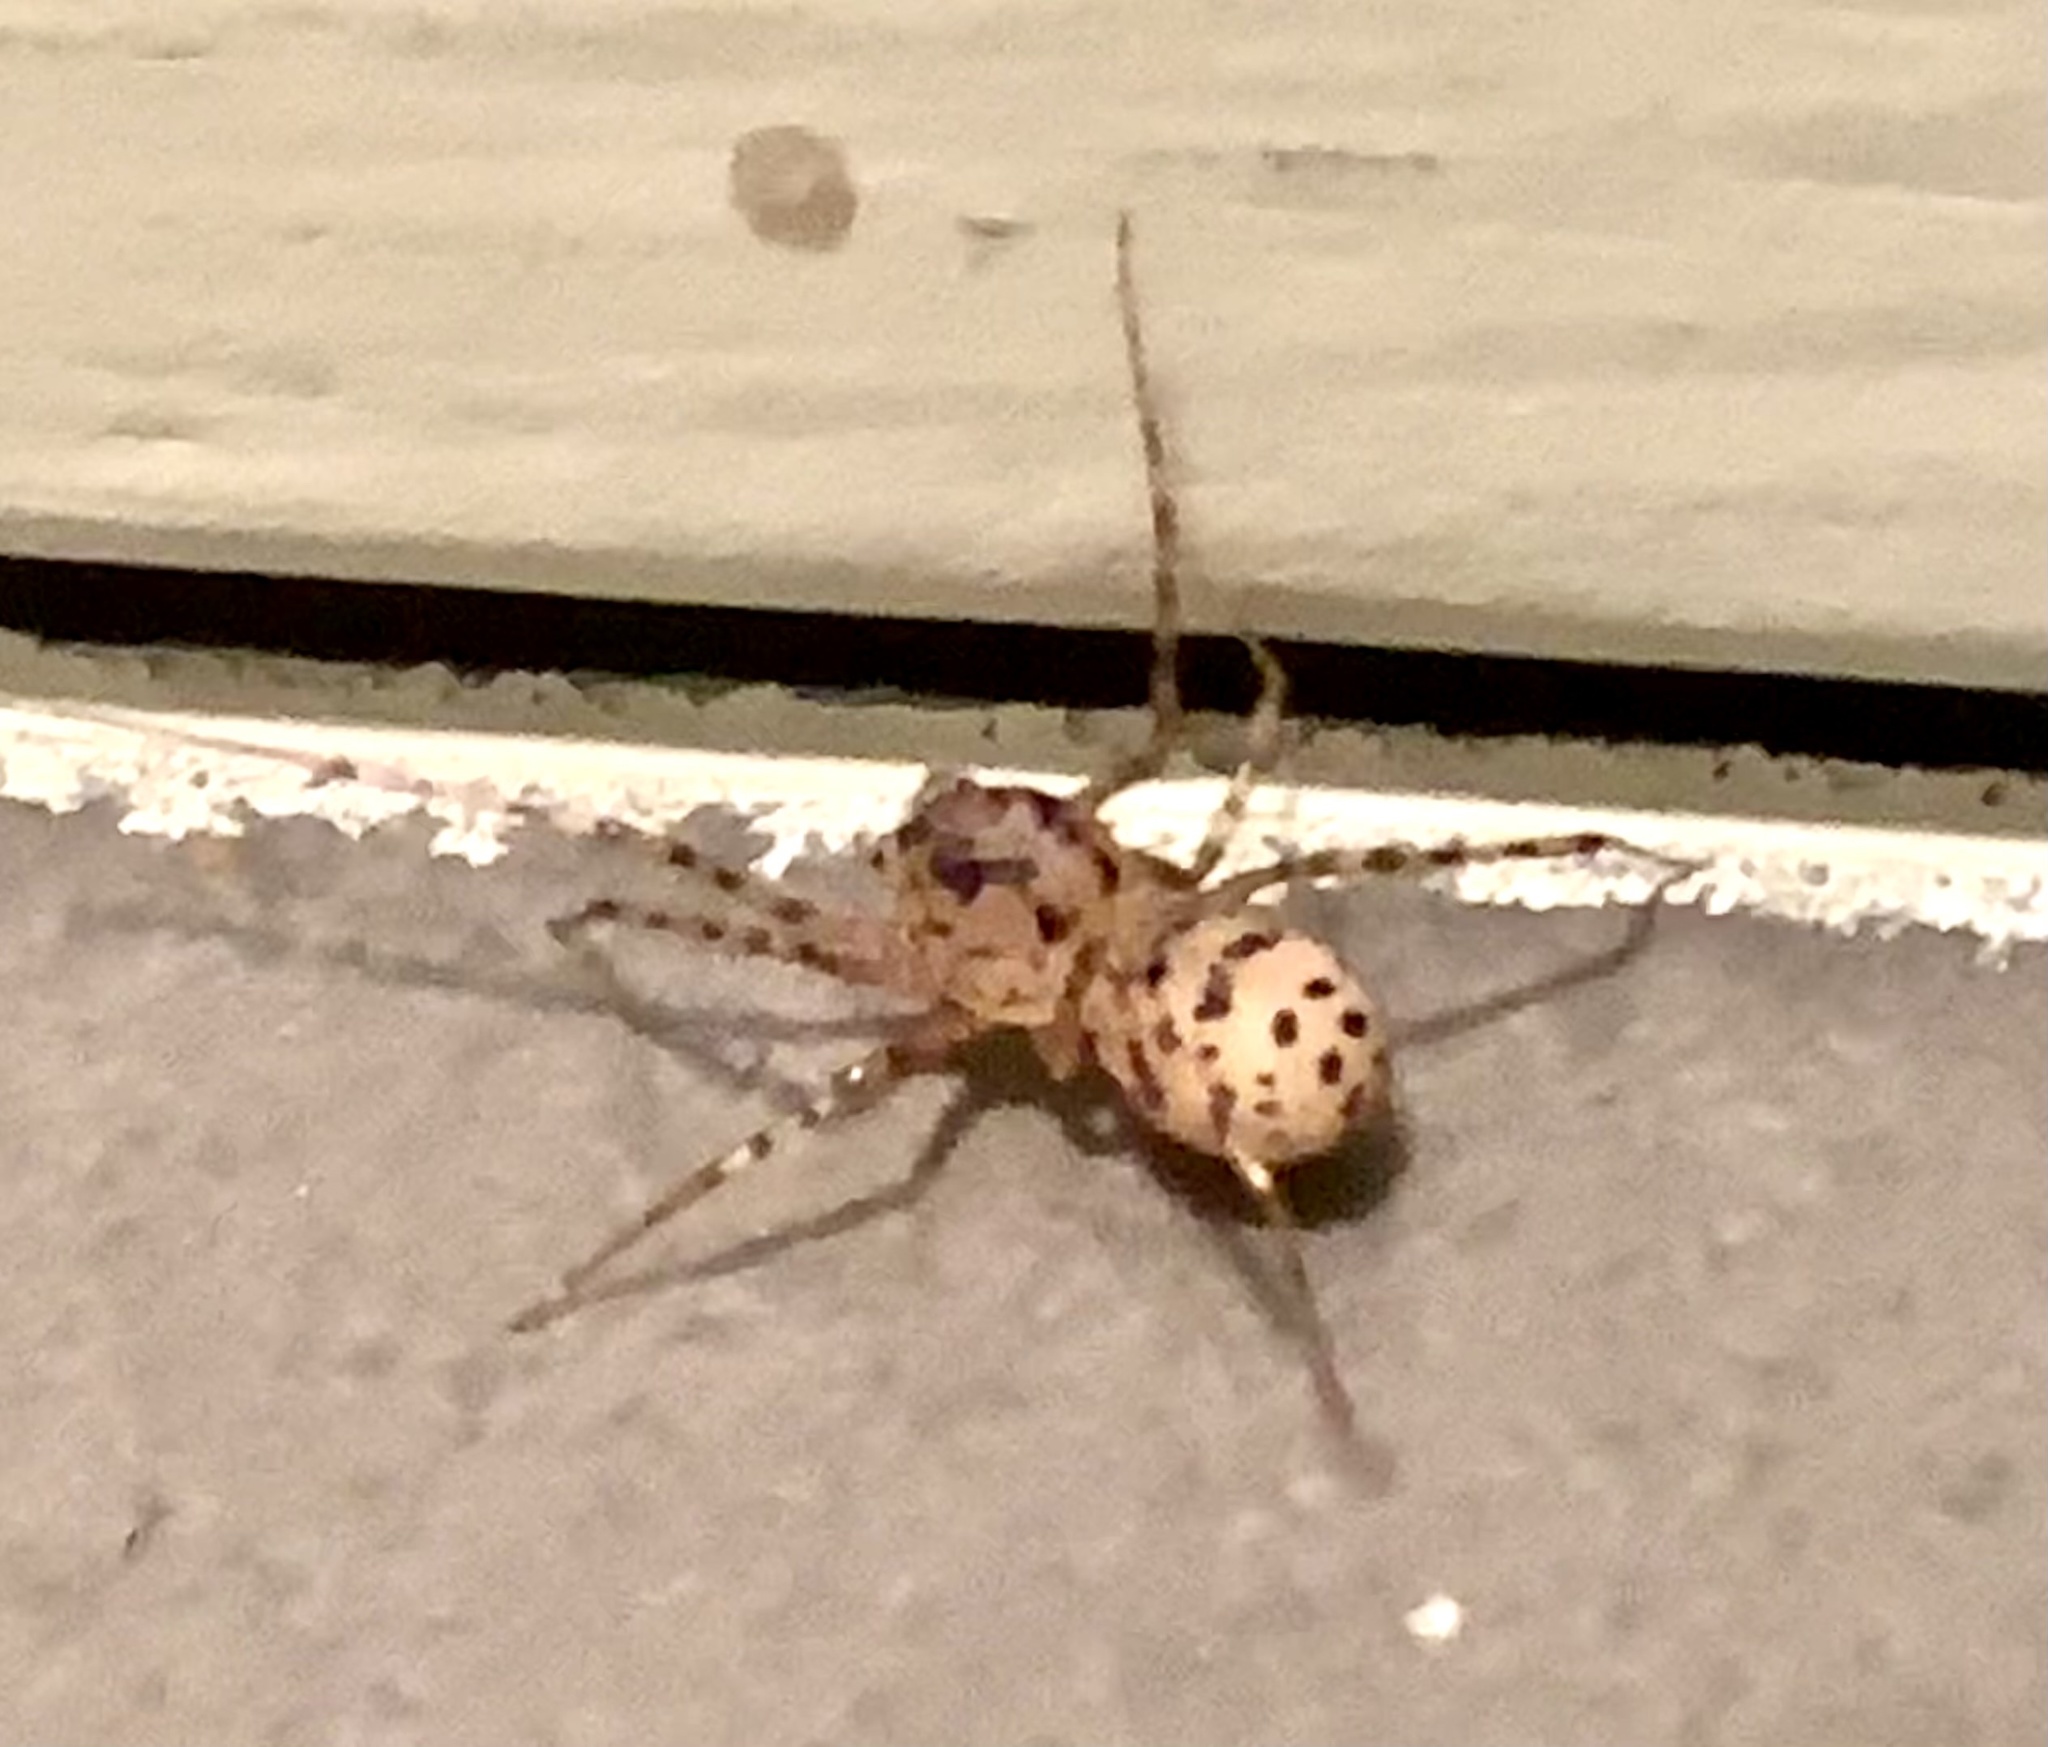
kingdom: Animalia
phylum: Arthropoda
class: Arachnida
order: Araneae
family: Scytodidae
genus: Scytodes
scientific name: Scytodes thoracica
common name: Spitting spider
